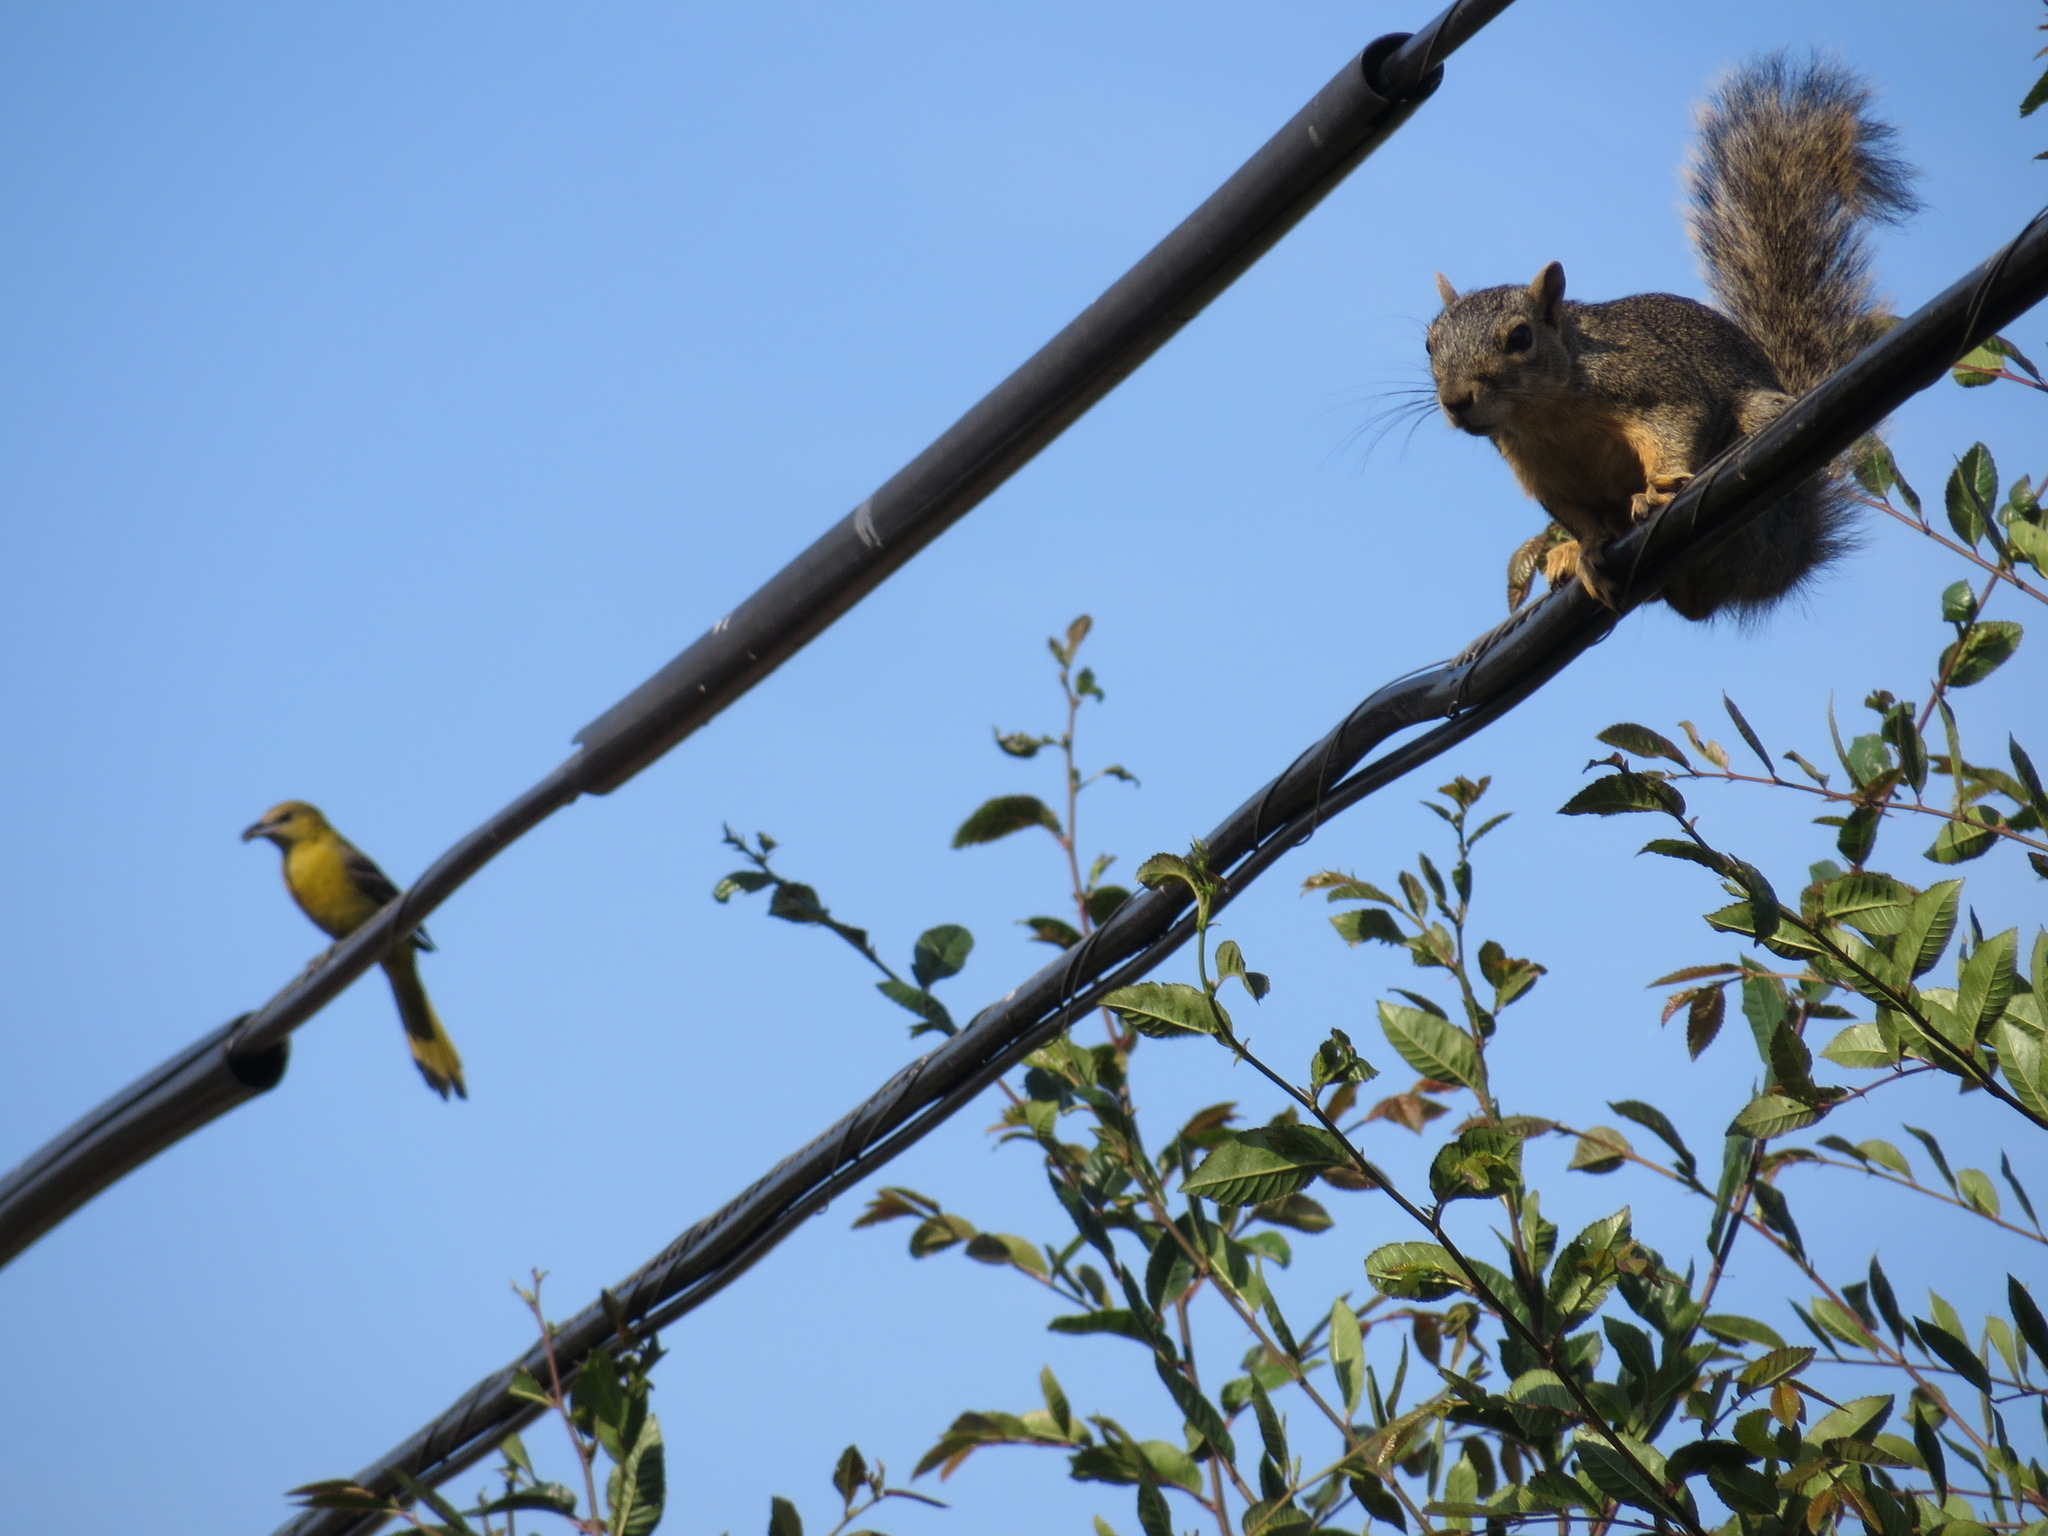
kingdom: Animalia
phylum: Chordata
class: Mammalia
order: Rodentia
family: Sciuridae
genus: Sciurus
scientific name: Sciurus niger
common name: Fox squirrel
